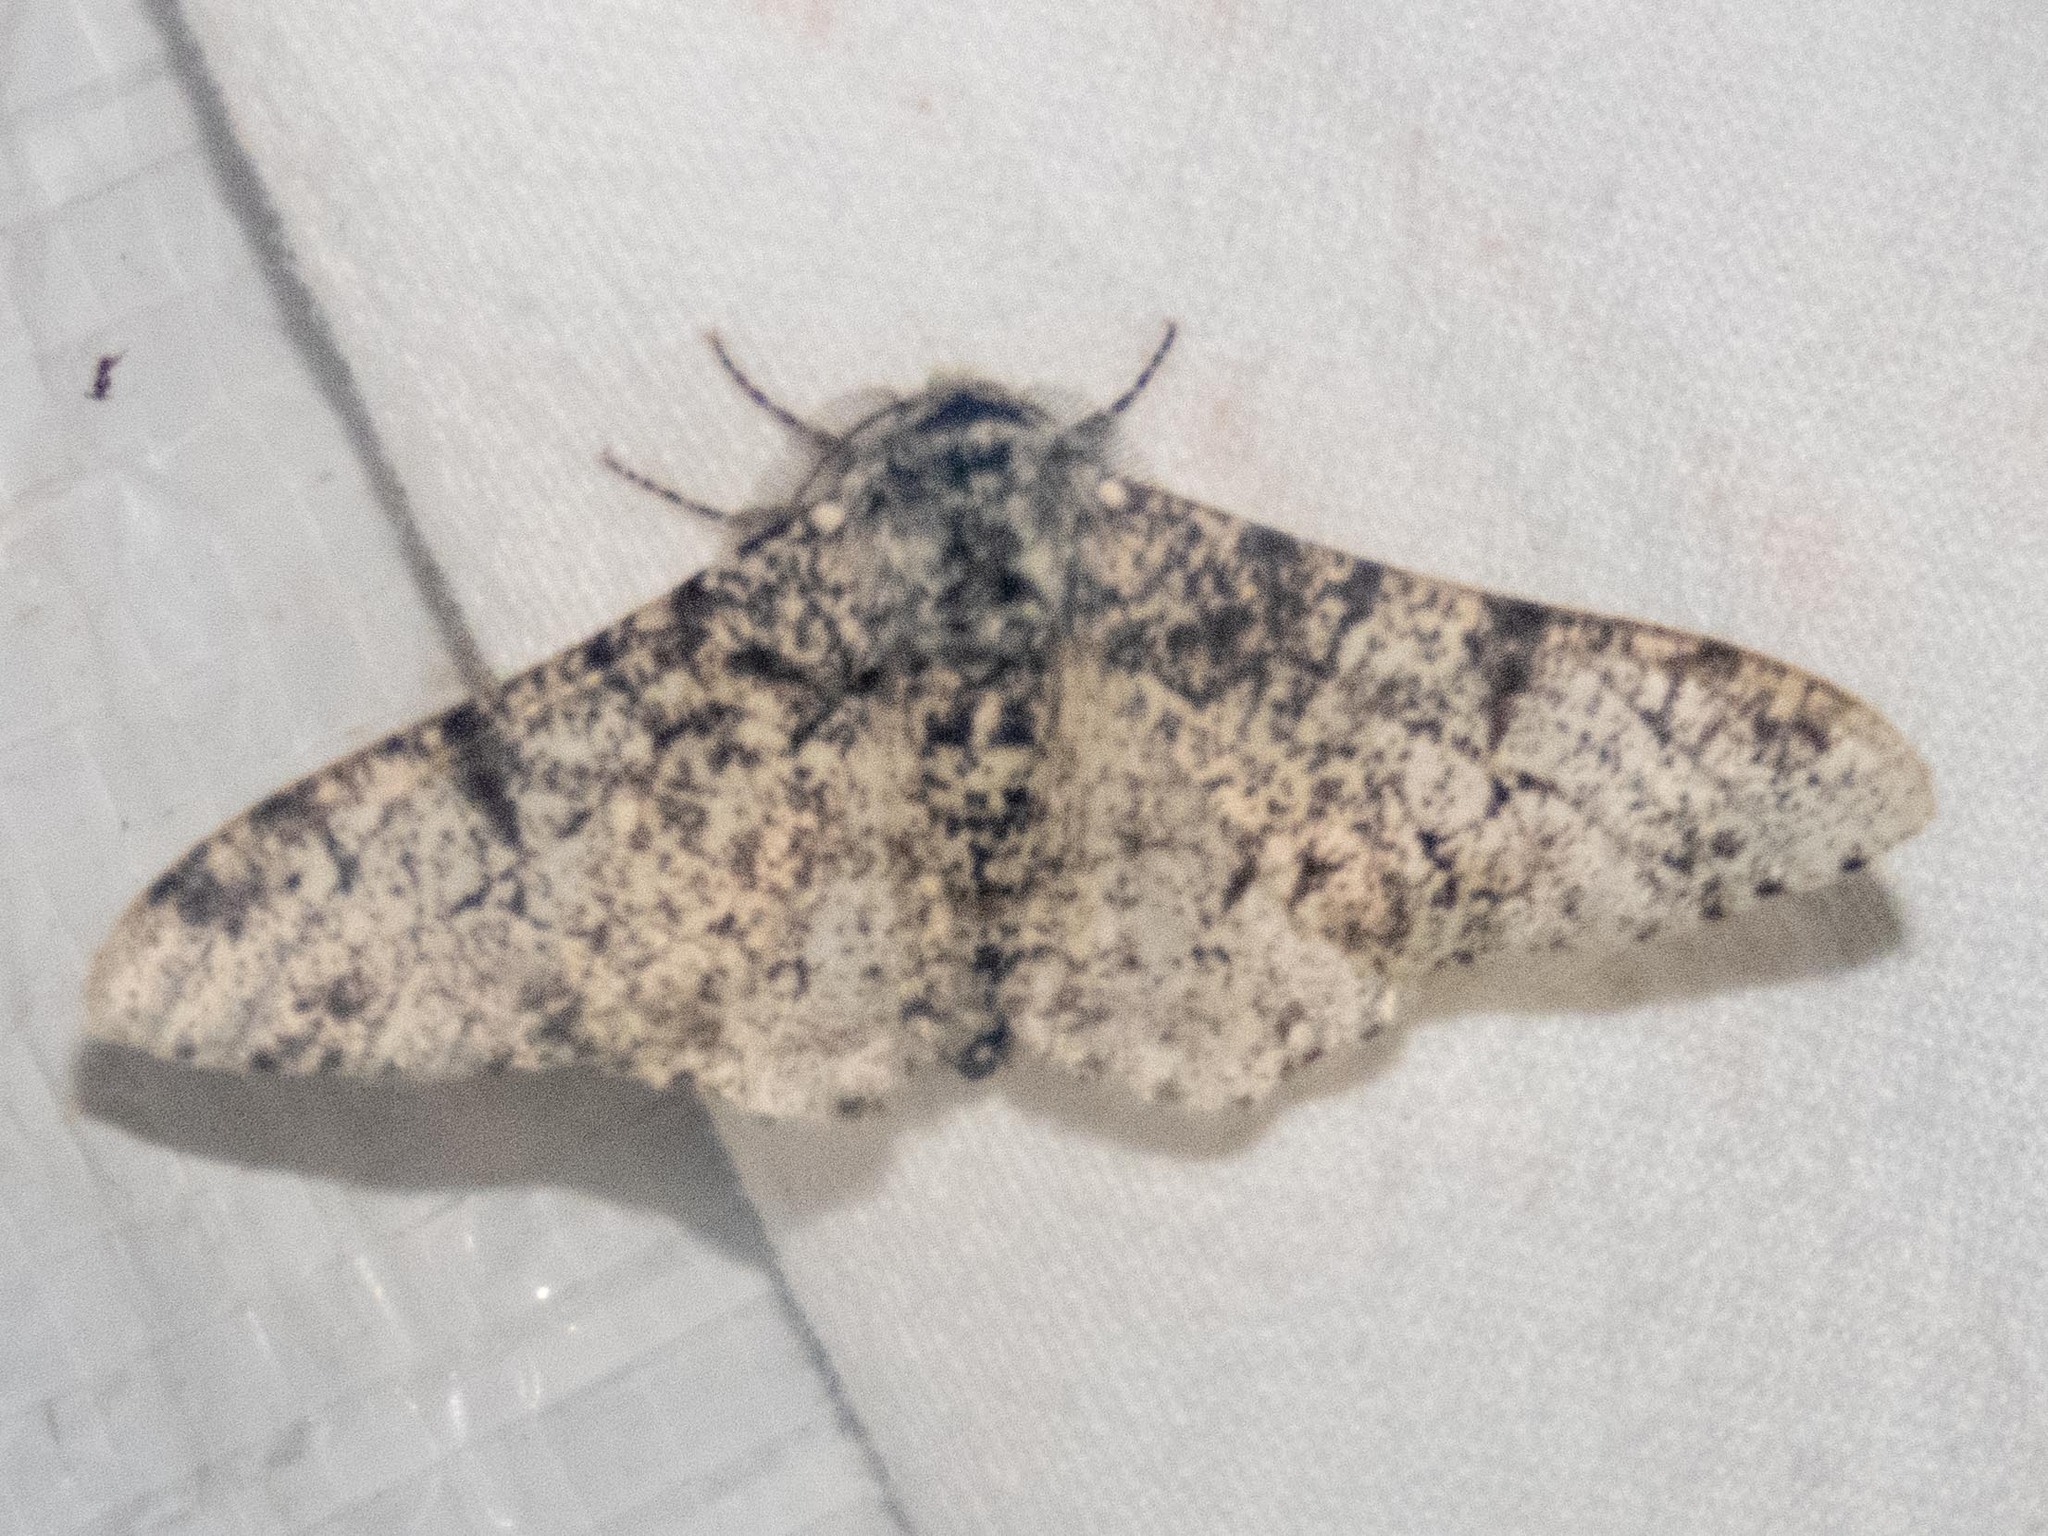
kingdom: Animalia
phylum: Arthropoda
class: Insecta
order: Lepidoptera
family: Geometridae
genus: Biston
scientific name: Biston betularia
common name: Peppered moth
